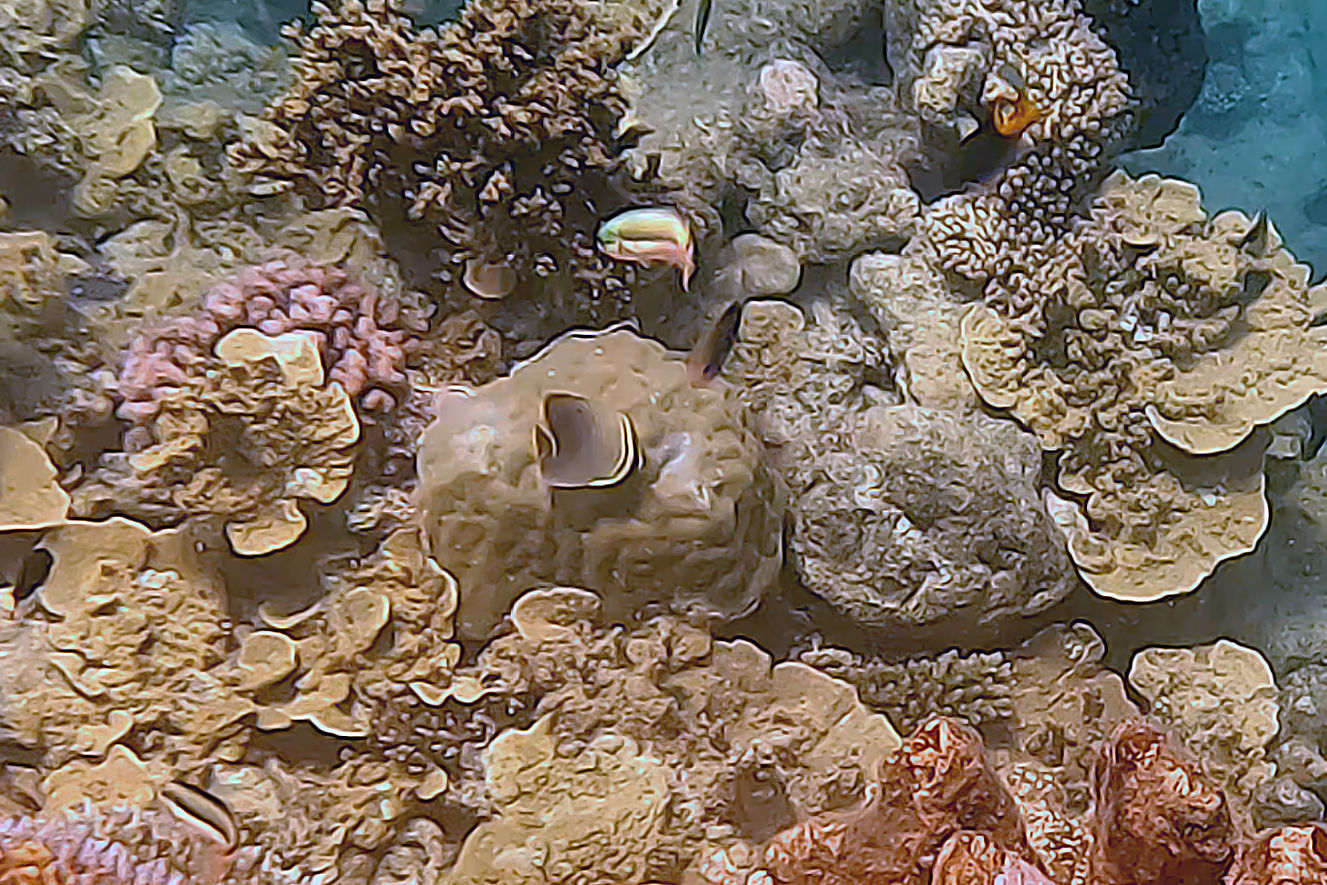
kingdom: Animalia
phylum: Chordata
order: Perciformes
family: Chaetodontidae
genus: Chaetodon
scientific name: Chaetodon baronessa
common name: Triangular butterflyfish
